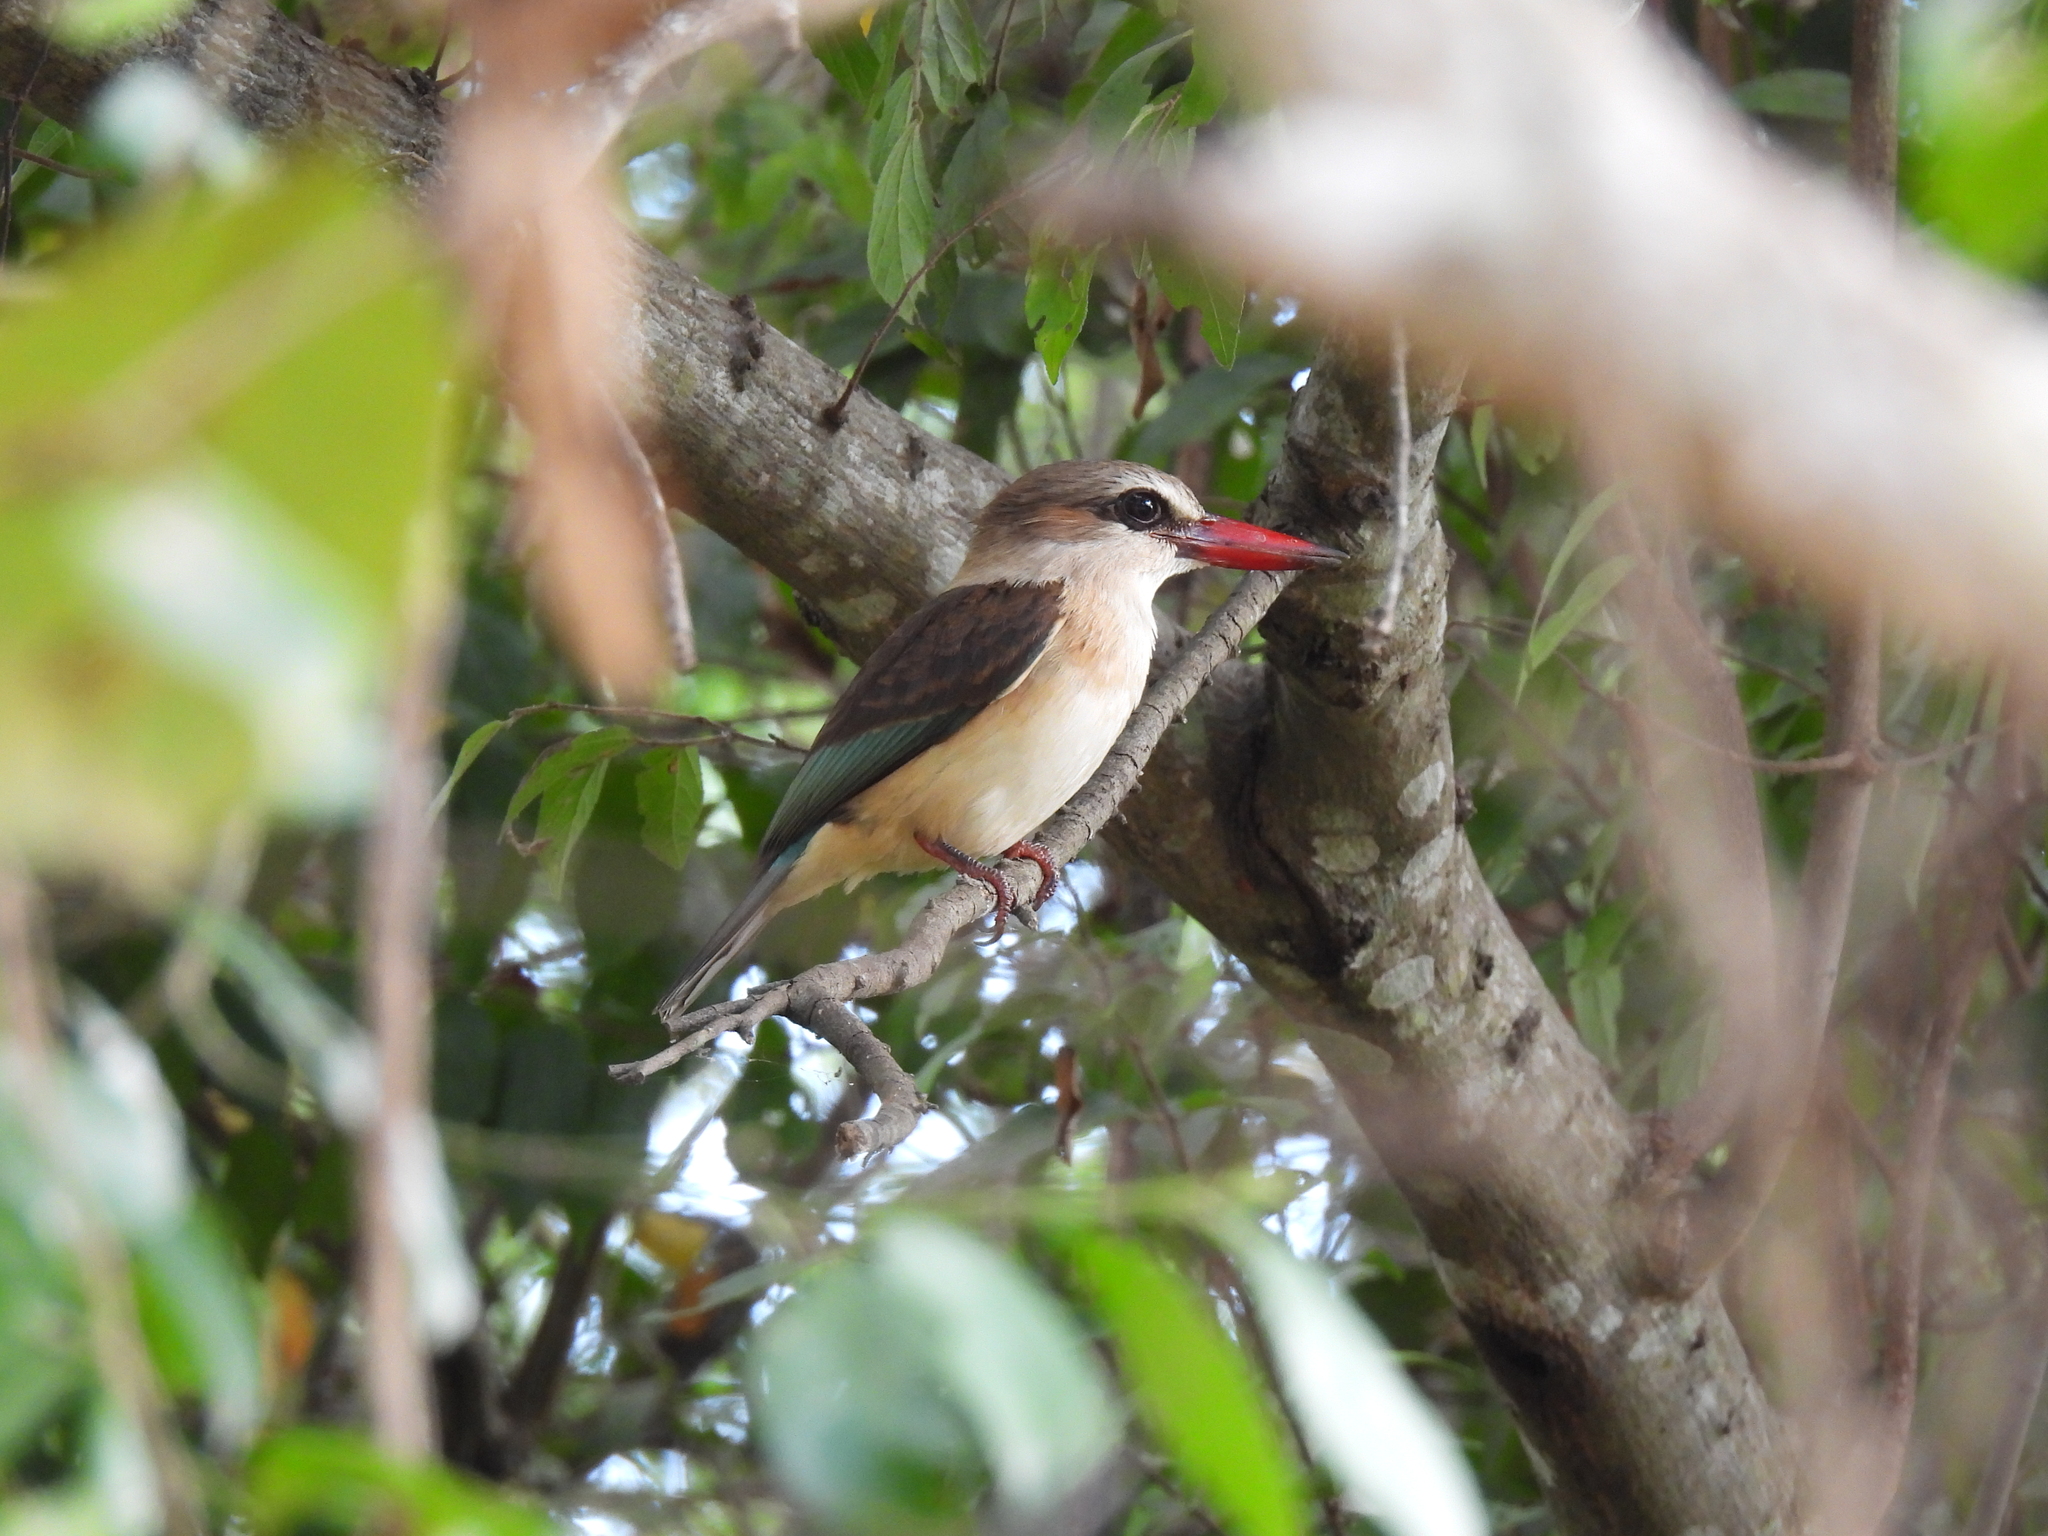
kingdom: Animalia
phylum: Chordata
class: Aves
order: Coraciiformes
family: Alcedinidae
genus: Halcyon
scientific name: Halcyon albiventris
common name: Brown-hooded kingfisher
